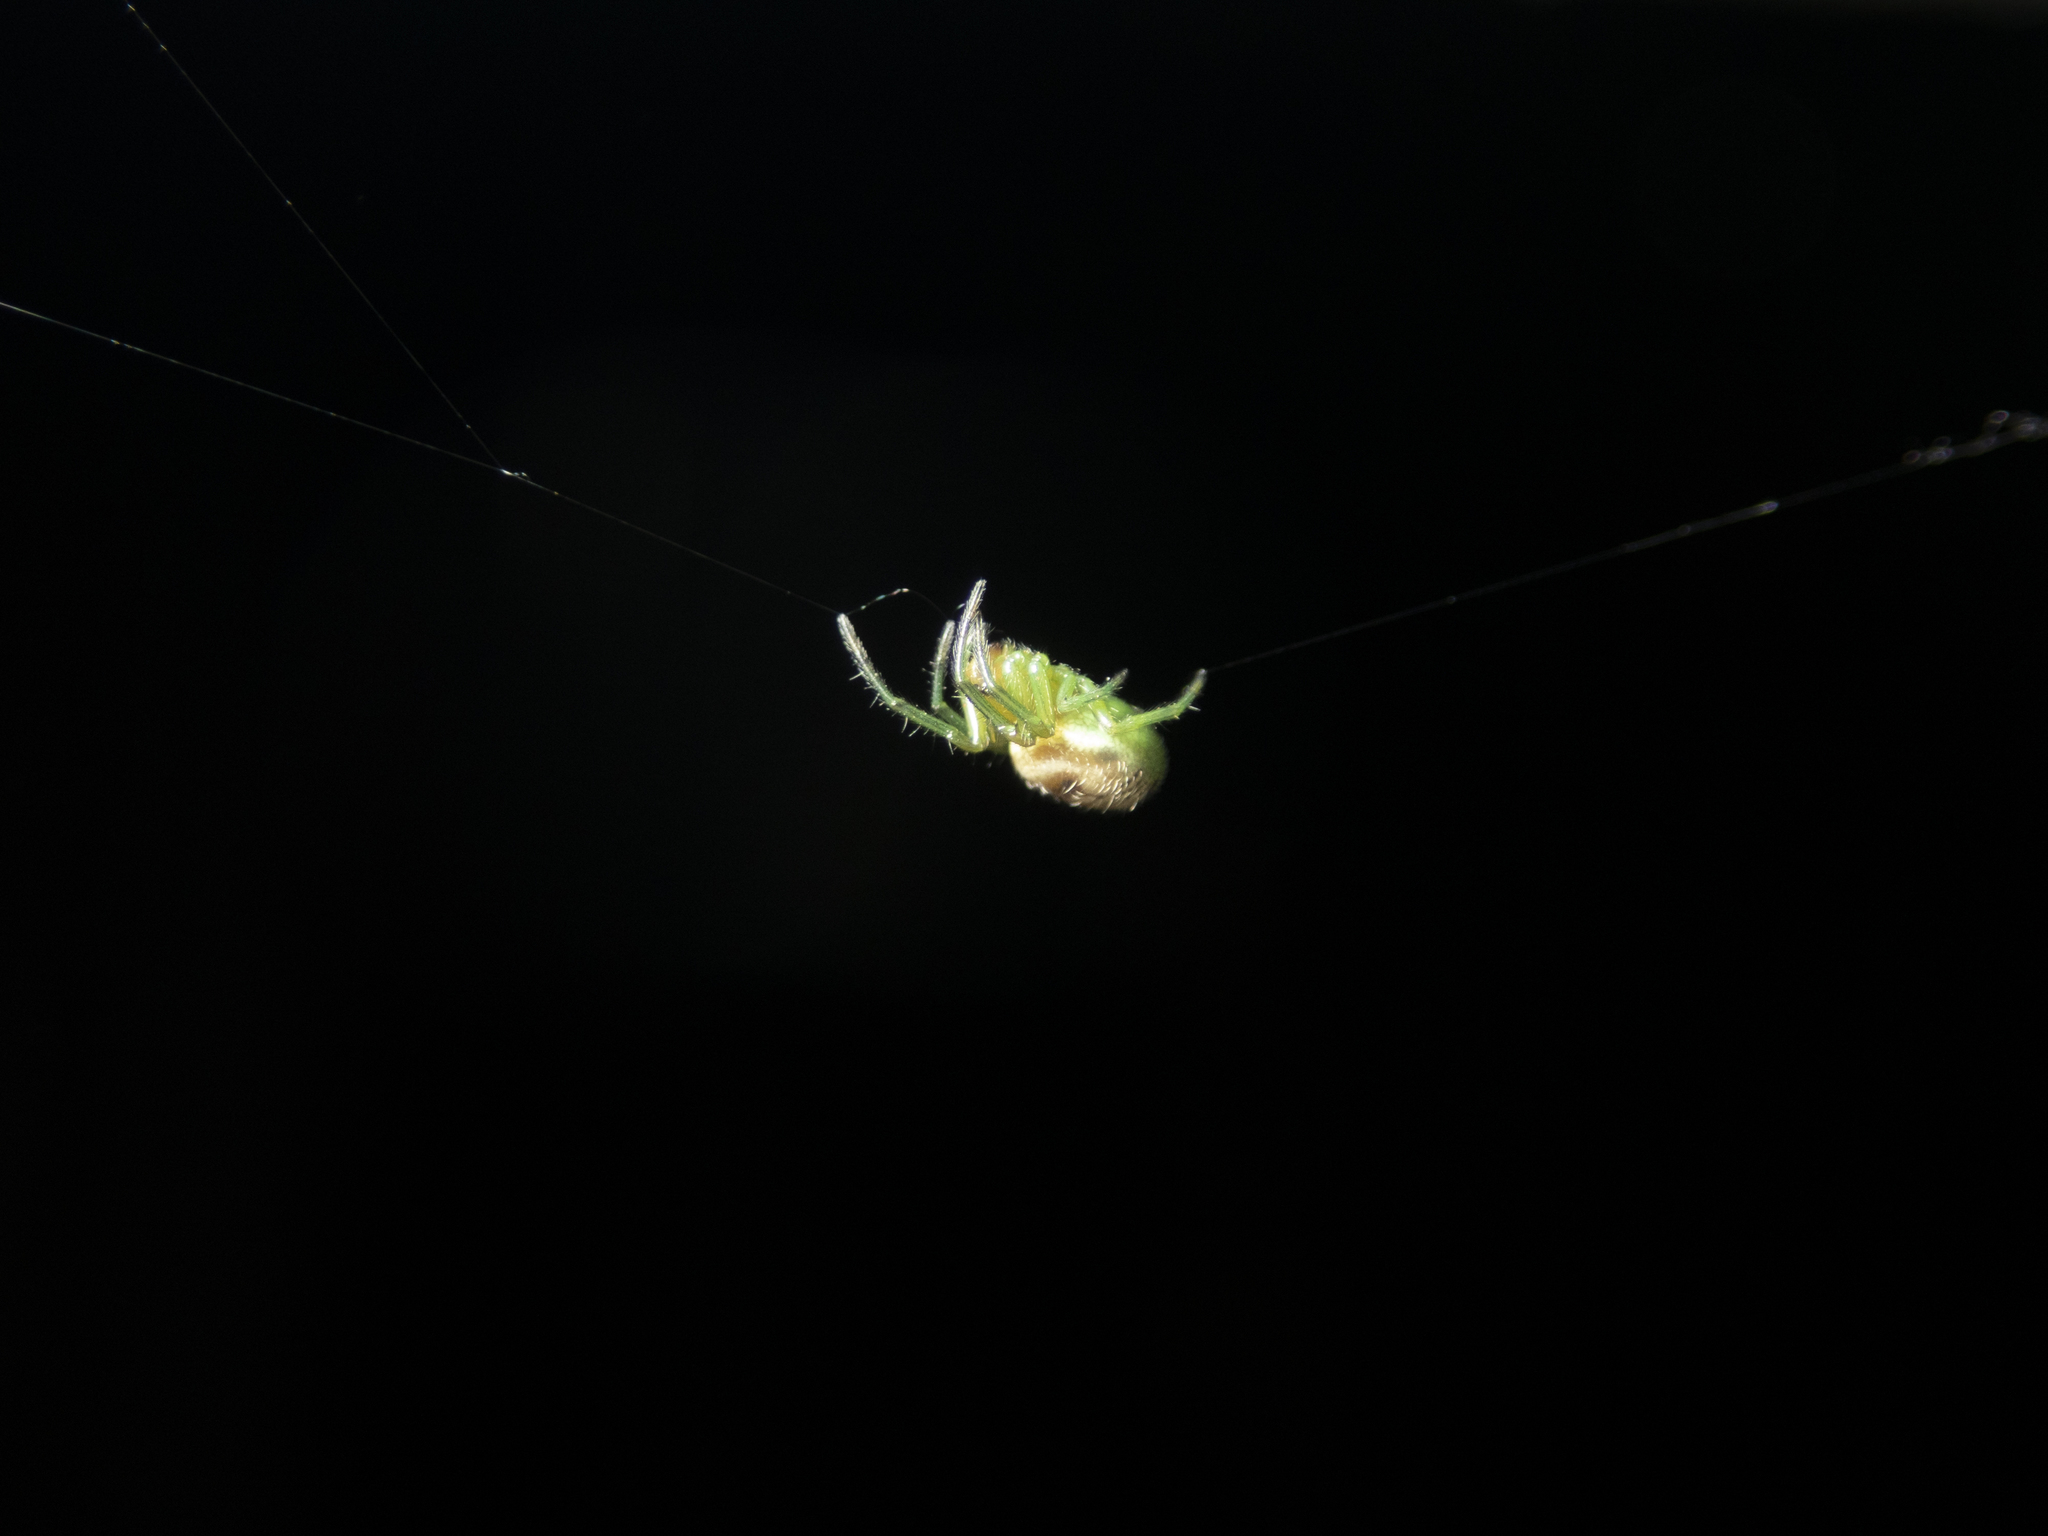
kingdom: Animalia
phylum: Arthropoda
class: Arachnida
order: Araneae
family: Araneidae
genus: Bijoaraneus
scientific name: Bijoaraneus mitificus
